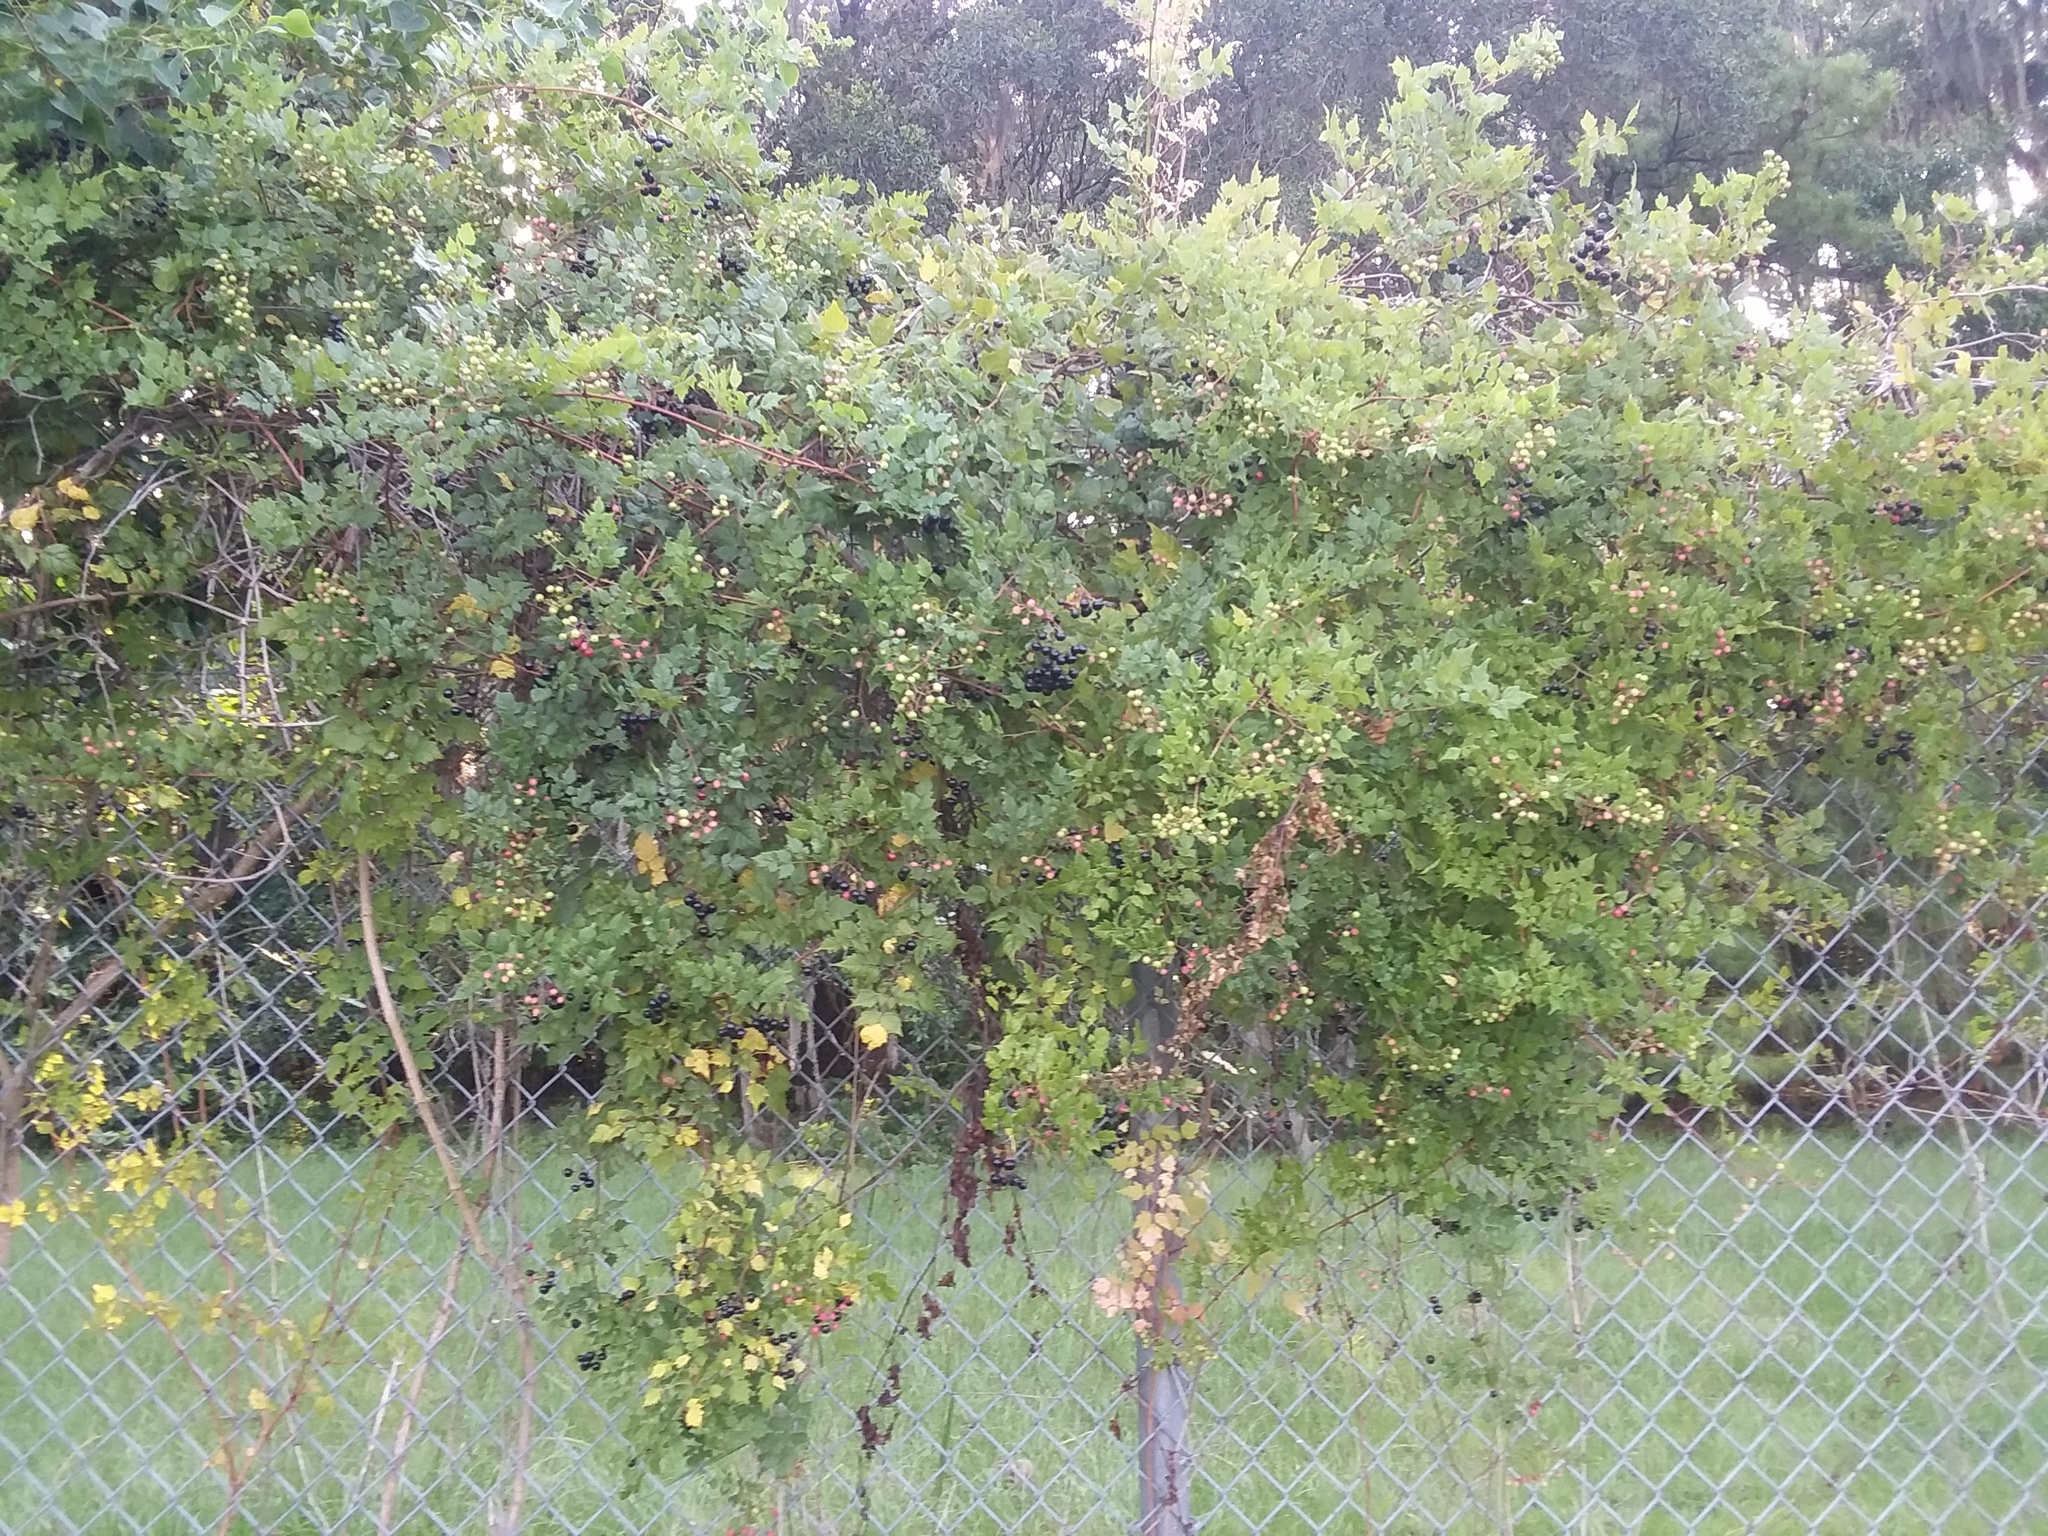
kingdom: Plantae
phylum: Tracheophyta
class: Magnoliopsida
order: Vitales
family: Vitaceae
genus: Nekemias
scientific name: Nekemias arborea
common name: Peppervine
